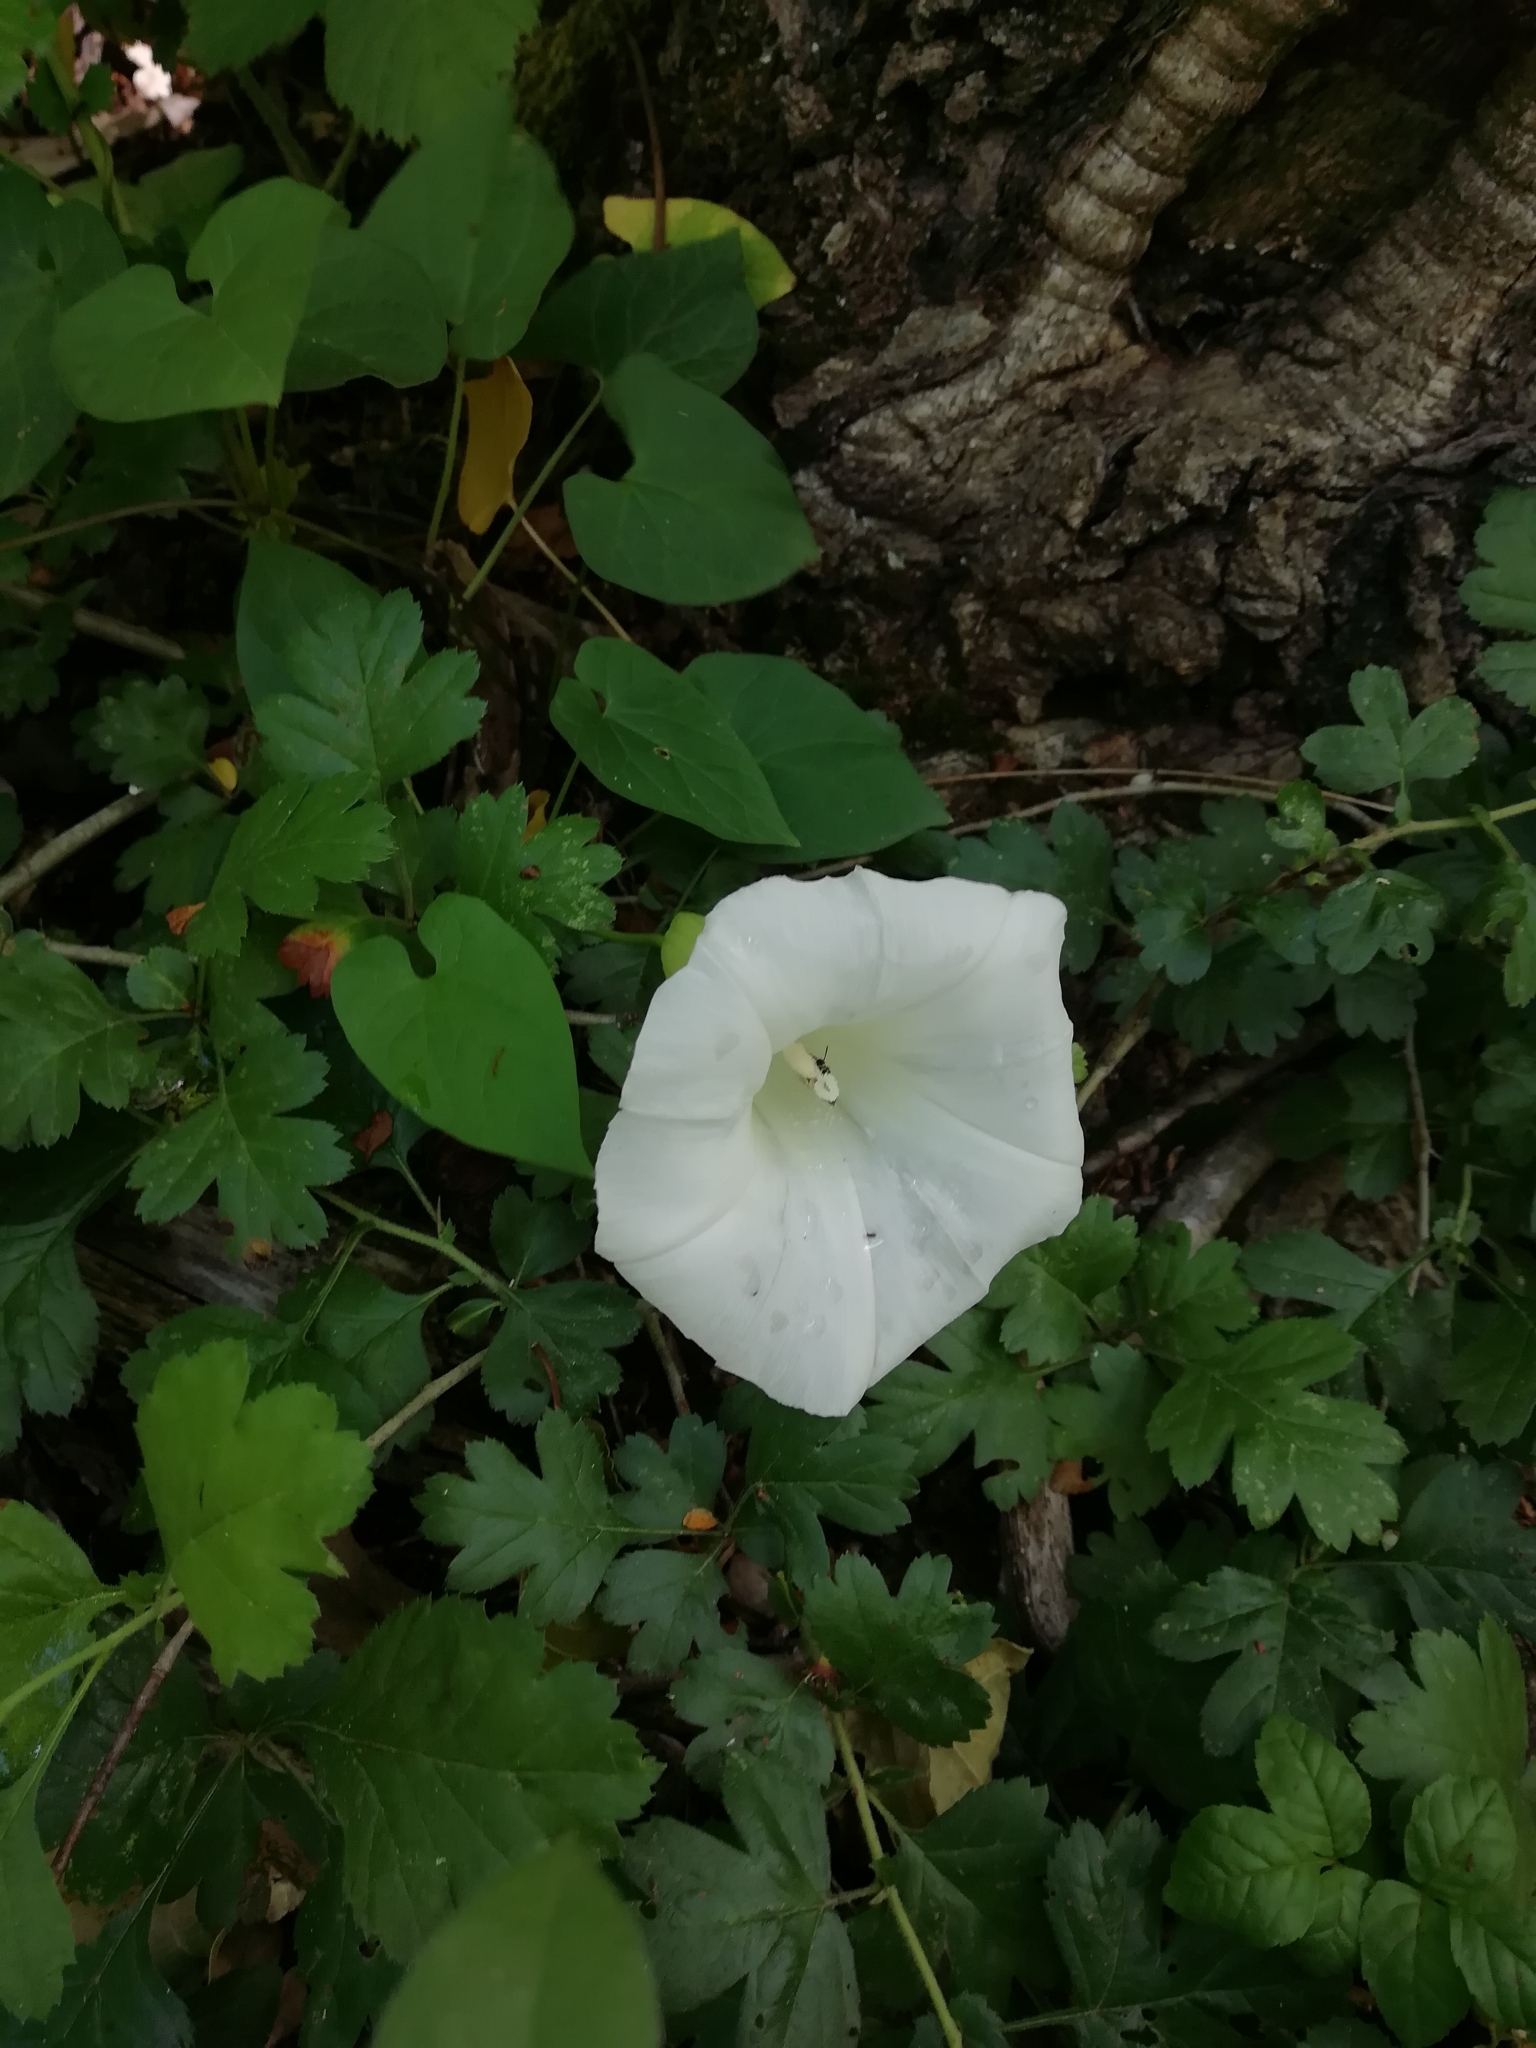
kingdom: Plantae
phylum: Tracheophyta
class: Magnoliopsida
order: Solanales
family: Convolvulaceae
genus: Calystegia
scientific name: Calystegia silvatica
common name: Large bindweed
